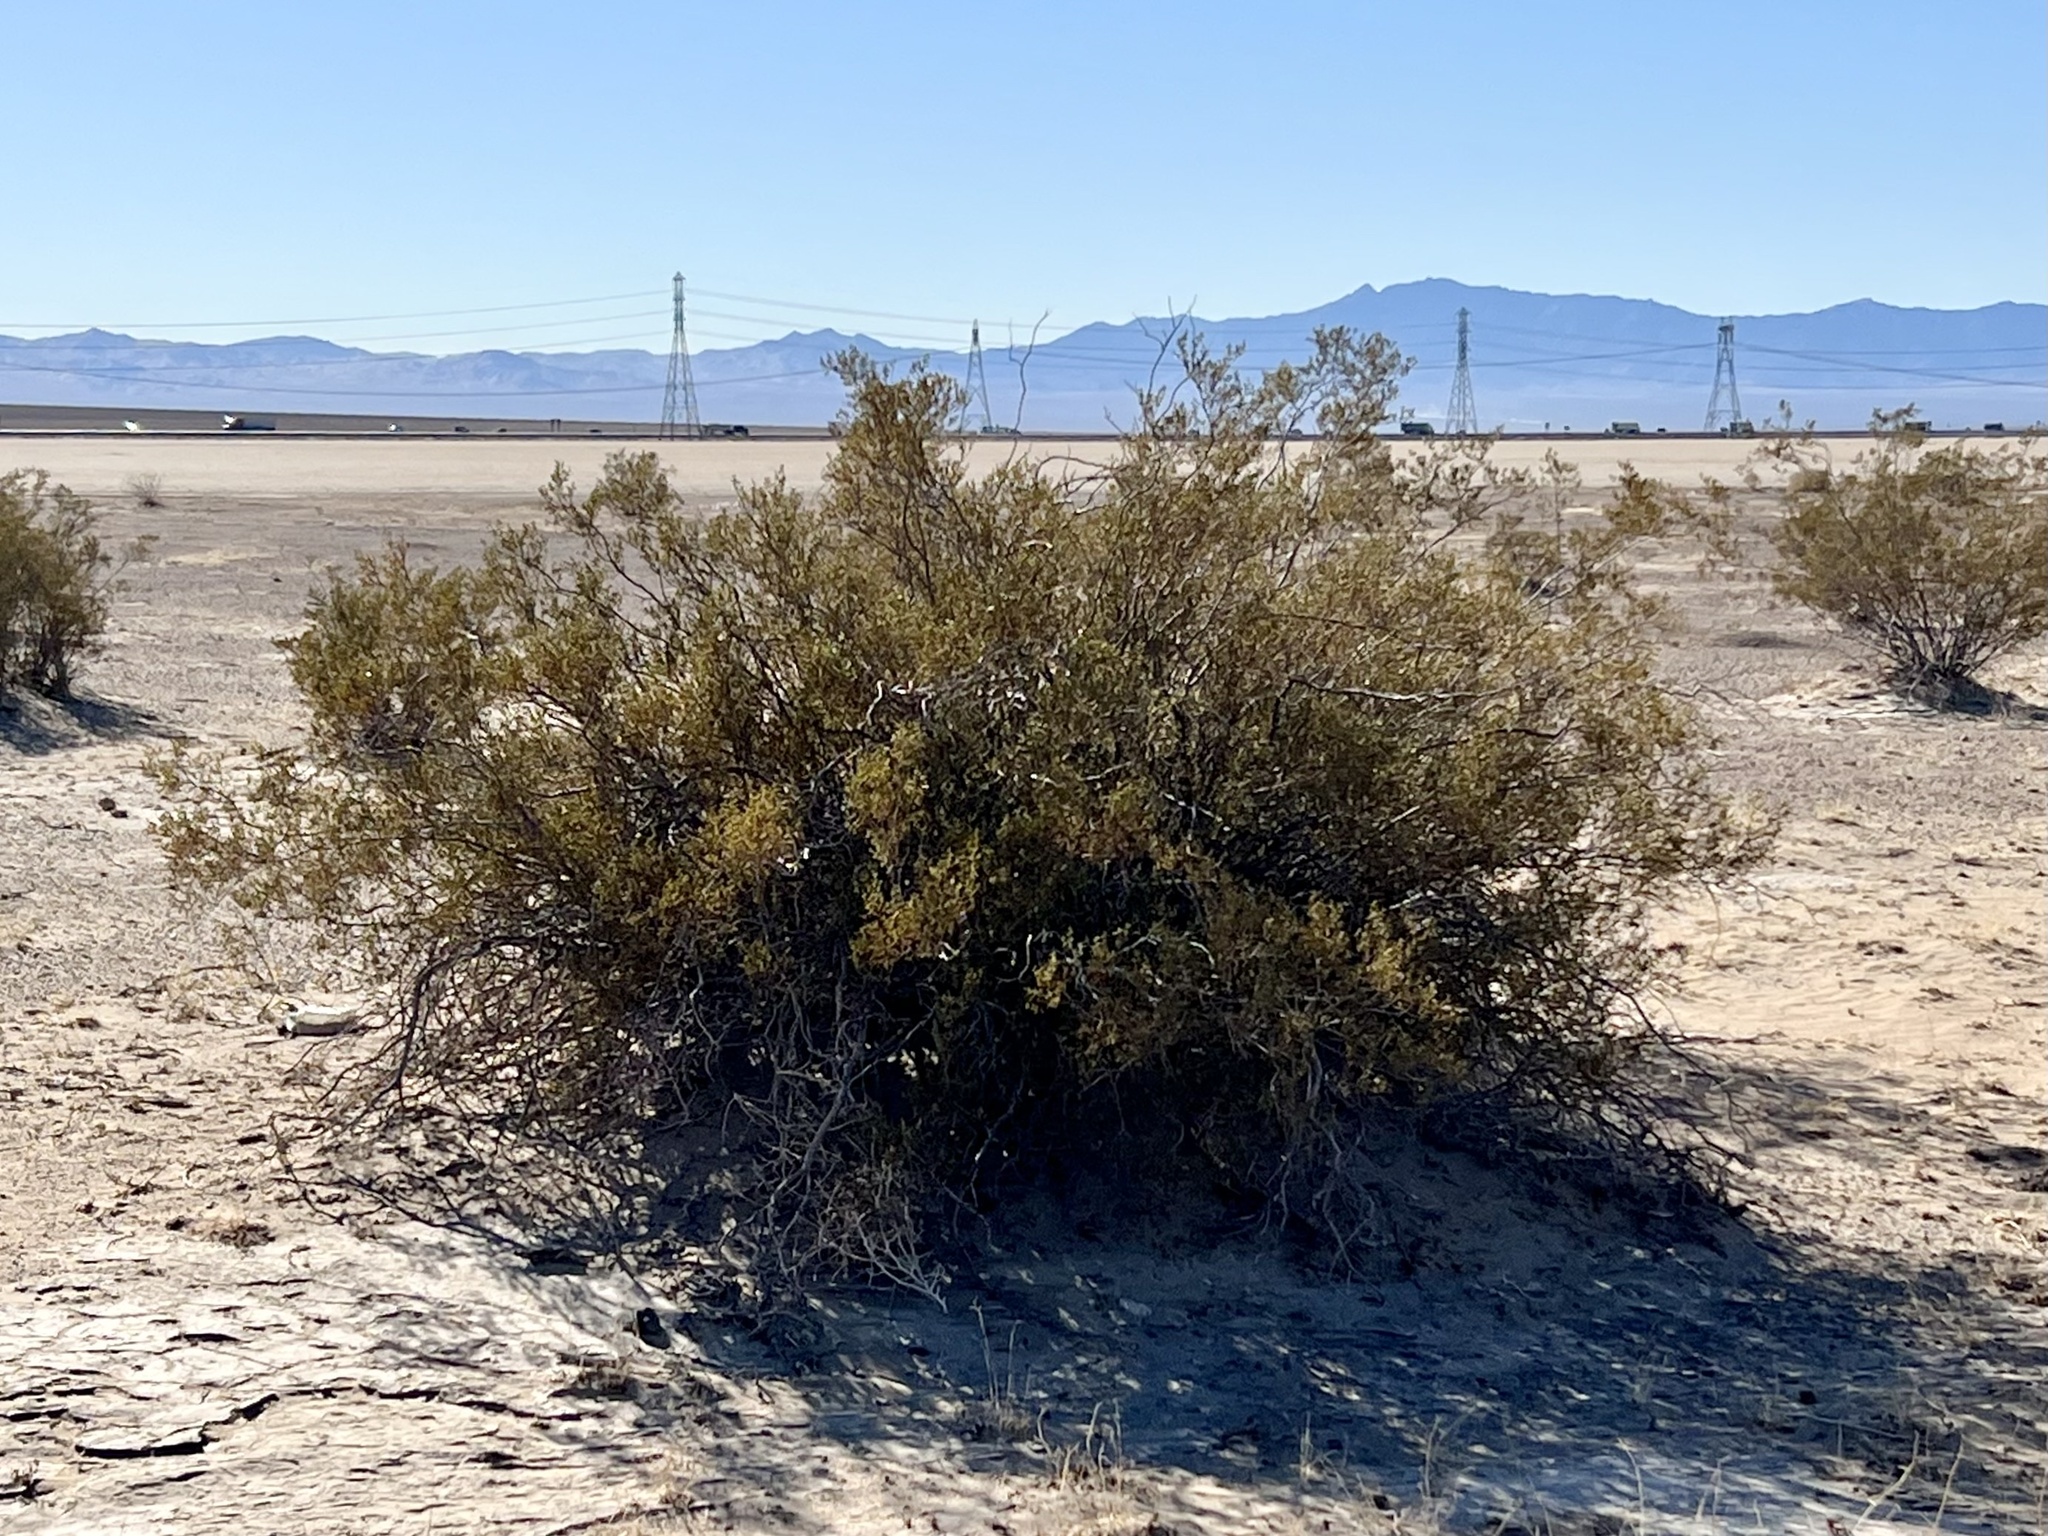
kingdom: Plantae
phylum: Tracheophyta
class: Magnoliopsida
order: Zygophyllales
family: Zygophyllaceae
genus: Larrea
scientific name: Larrea tridentata
